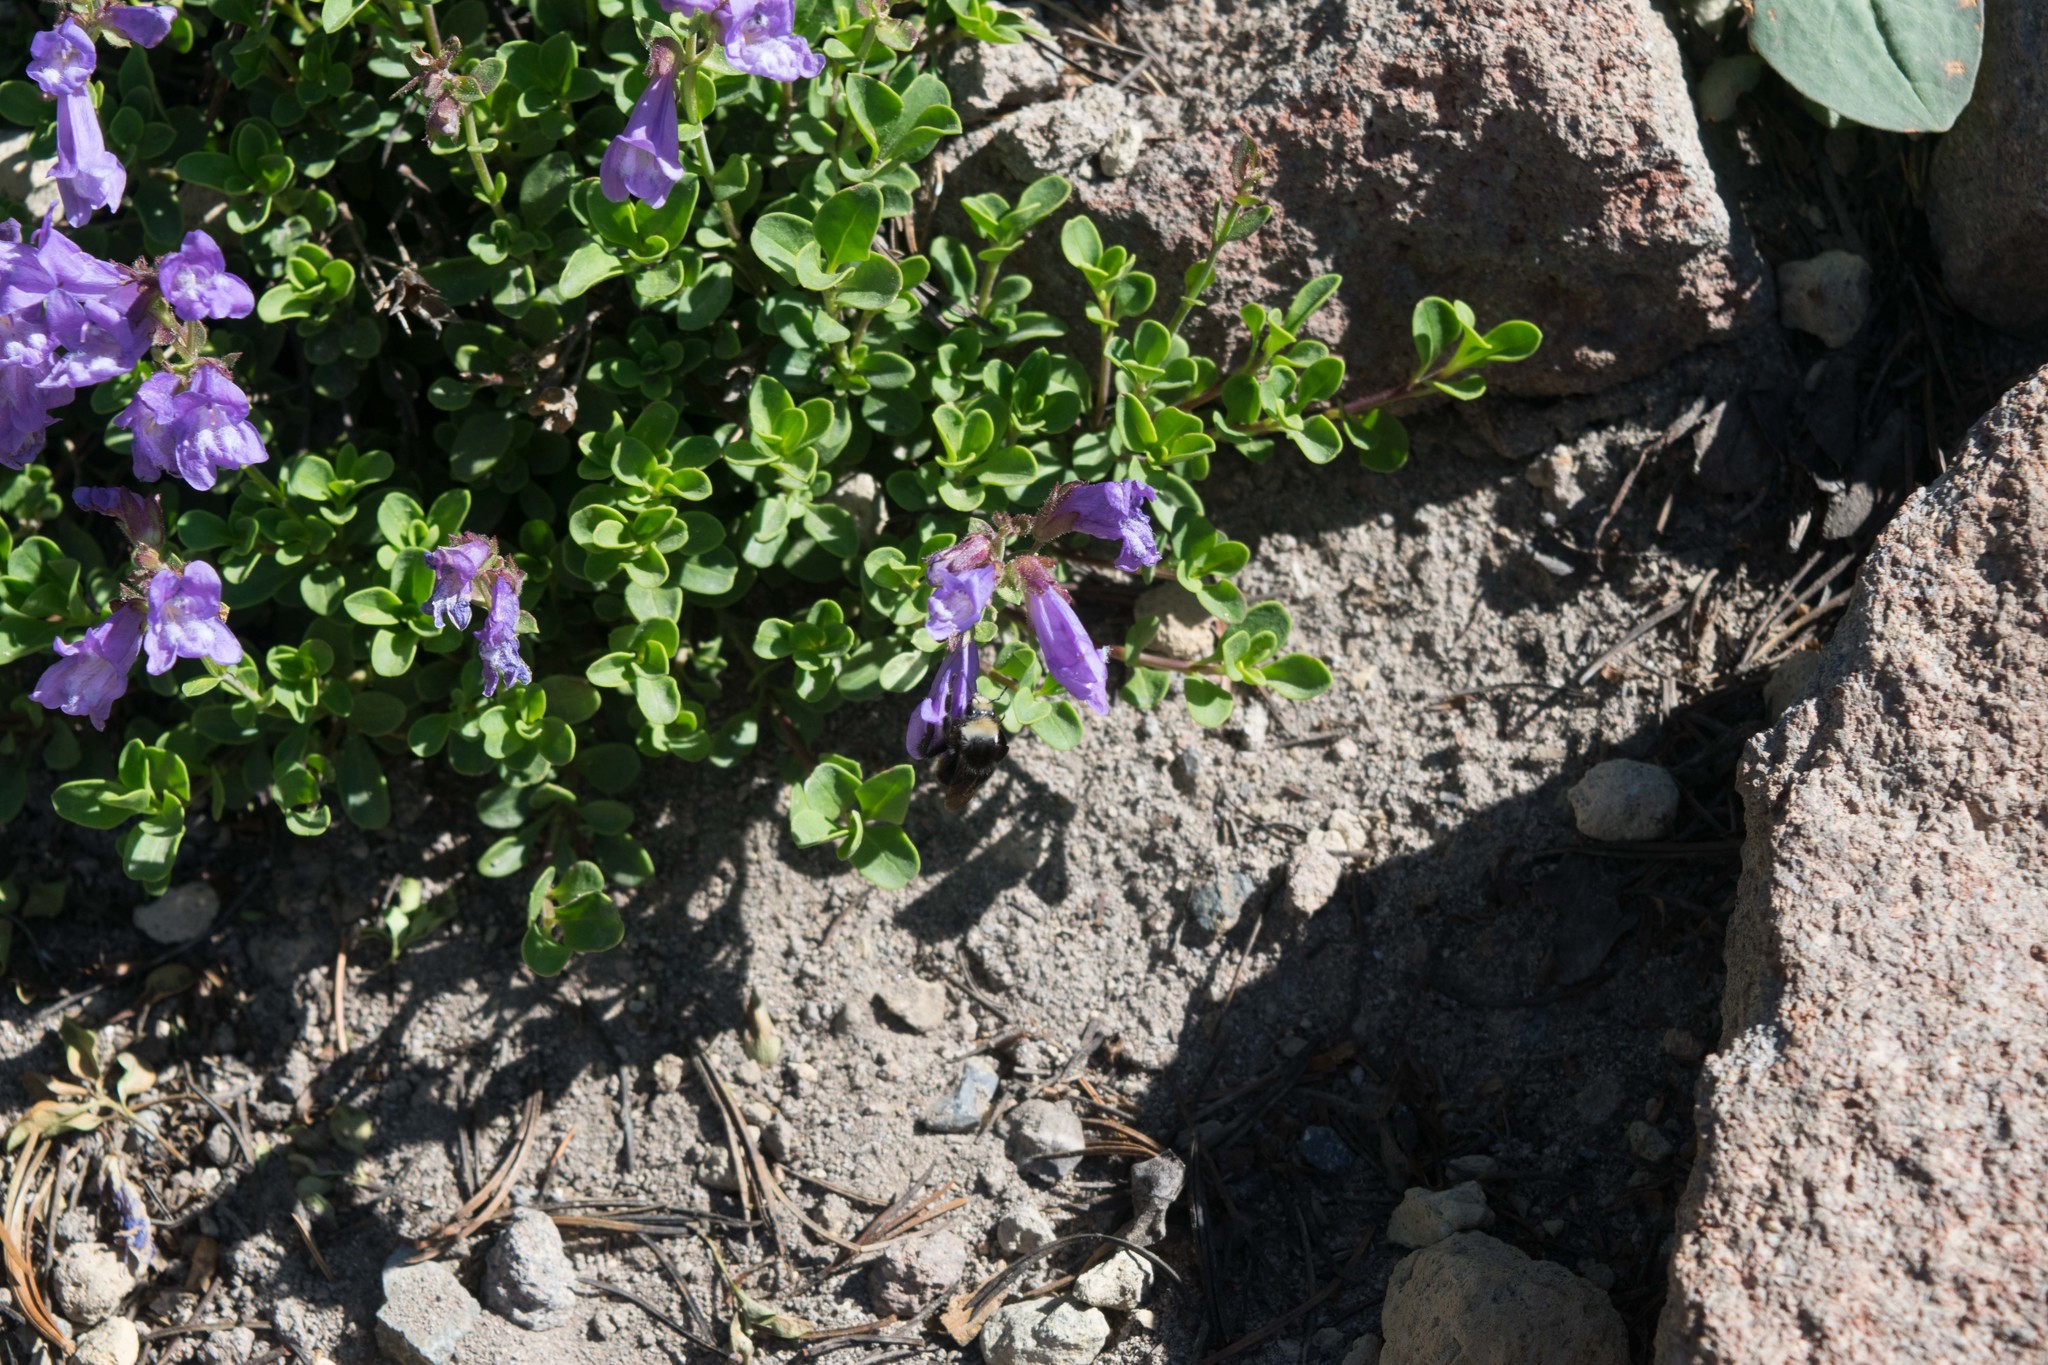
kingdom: Plantae
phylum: Tracheophyta
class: Magnoliopsida
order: Lamiales
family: Plantaginaceae
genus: Penstemon
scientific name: Penstemon davidsonii
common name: Davidson's penstemon
